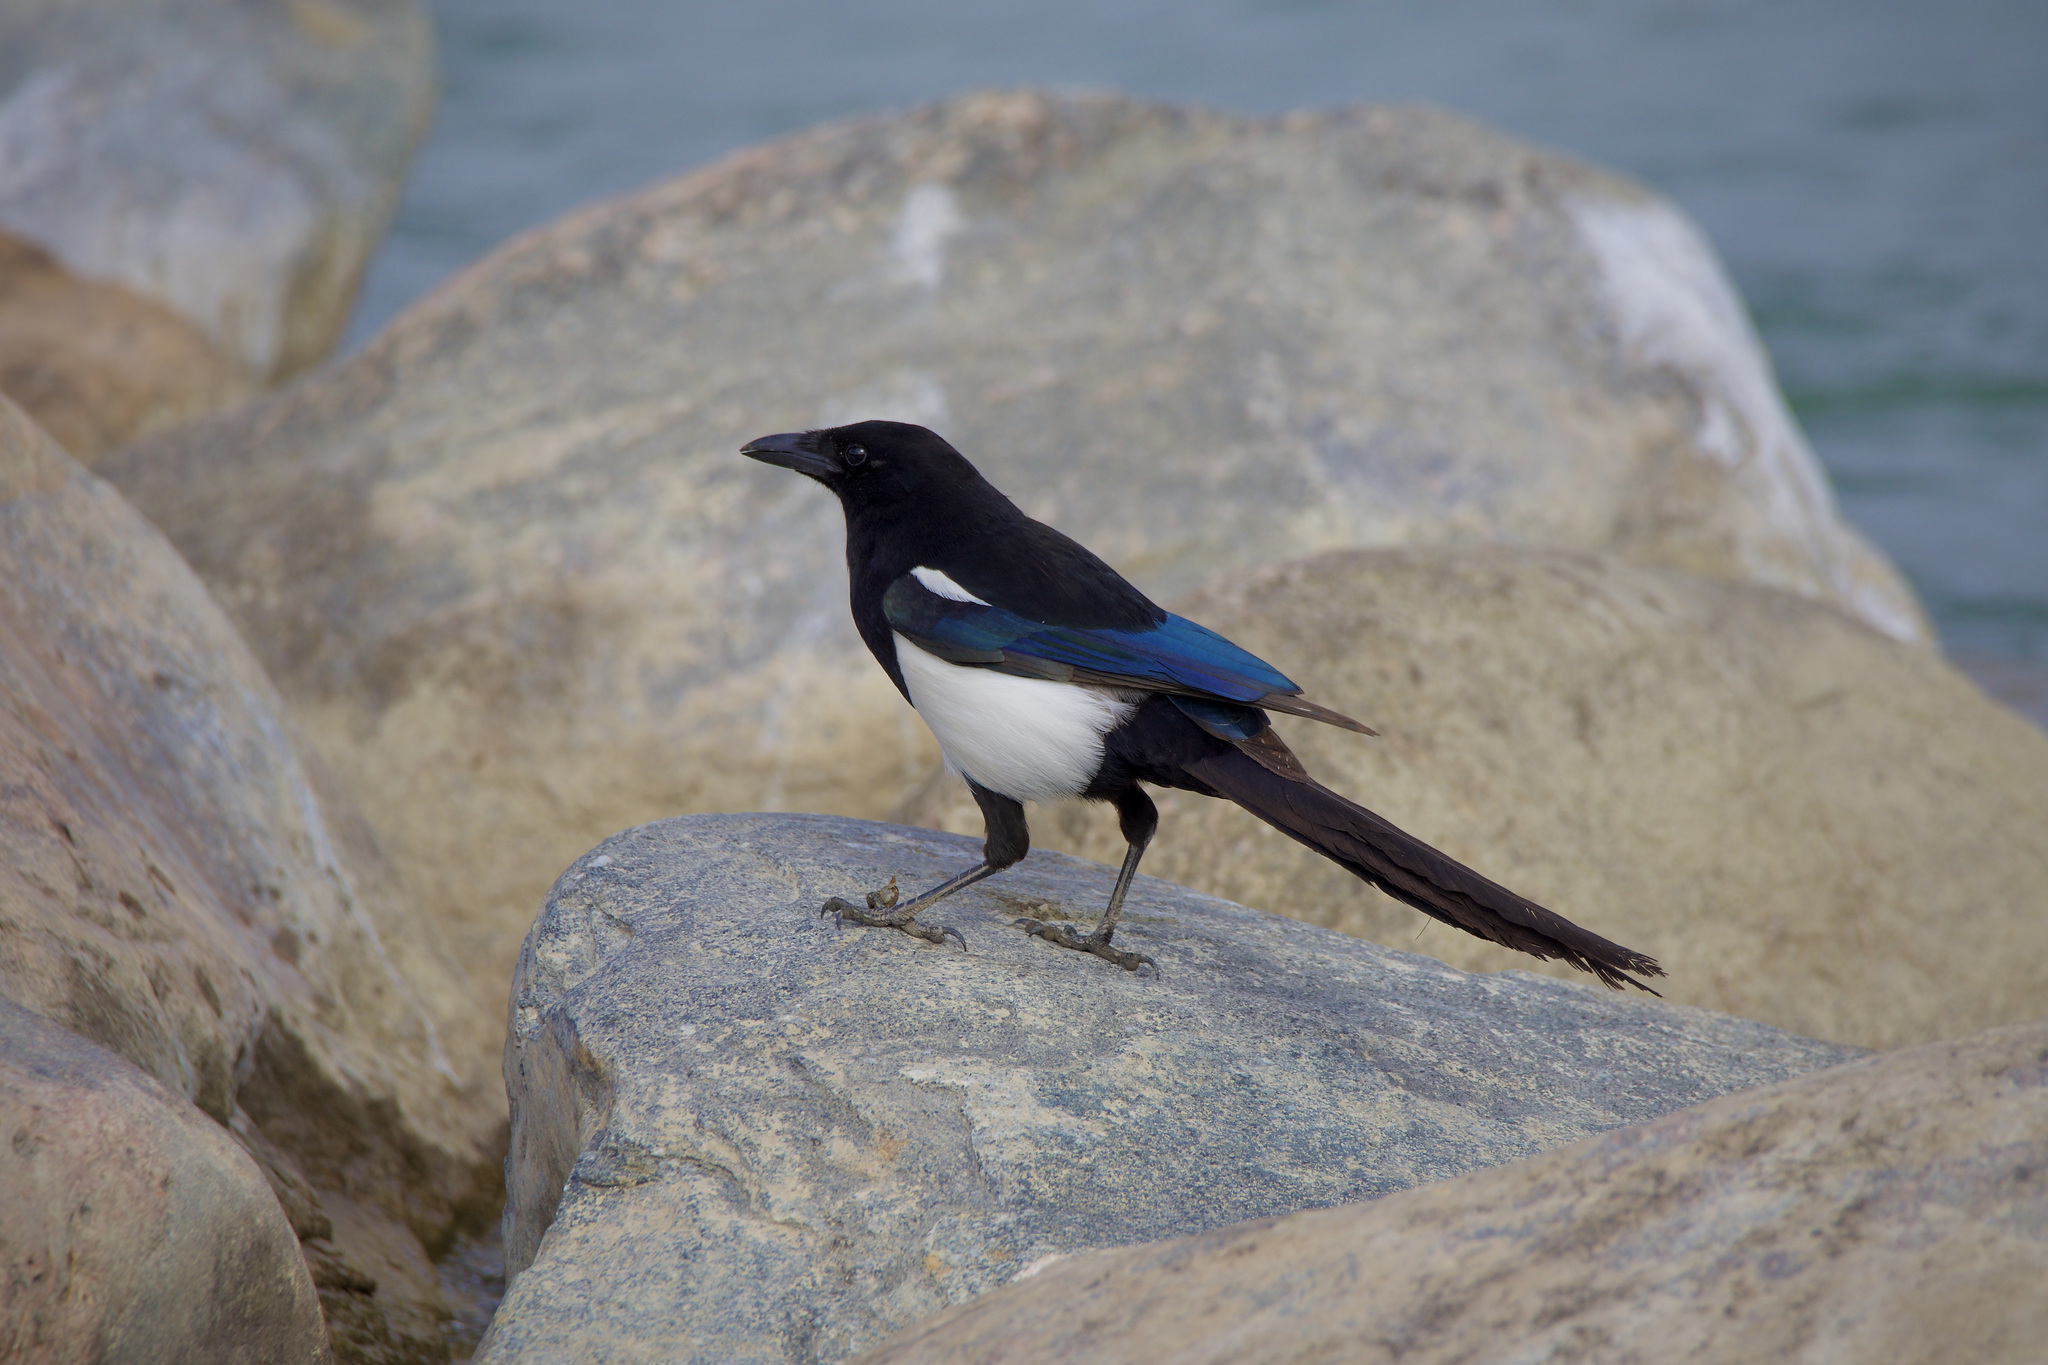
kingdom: Animalia
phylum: Chordata
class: Aves
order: Passeriformes
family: Corvidae
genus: Pica
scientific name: Pica hudsonia
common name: Black-billed magpie
